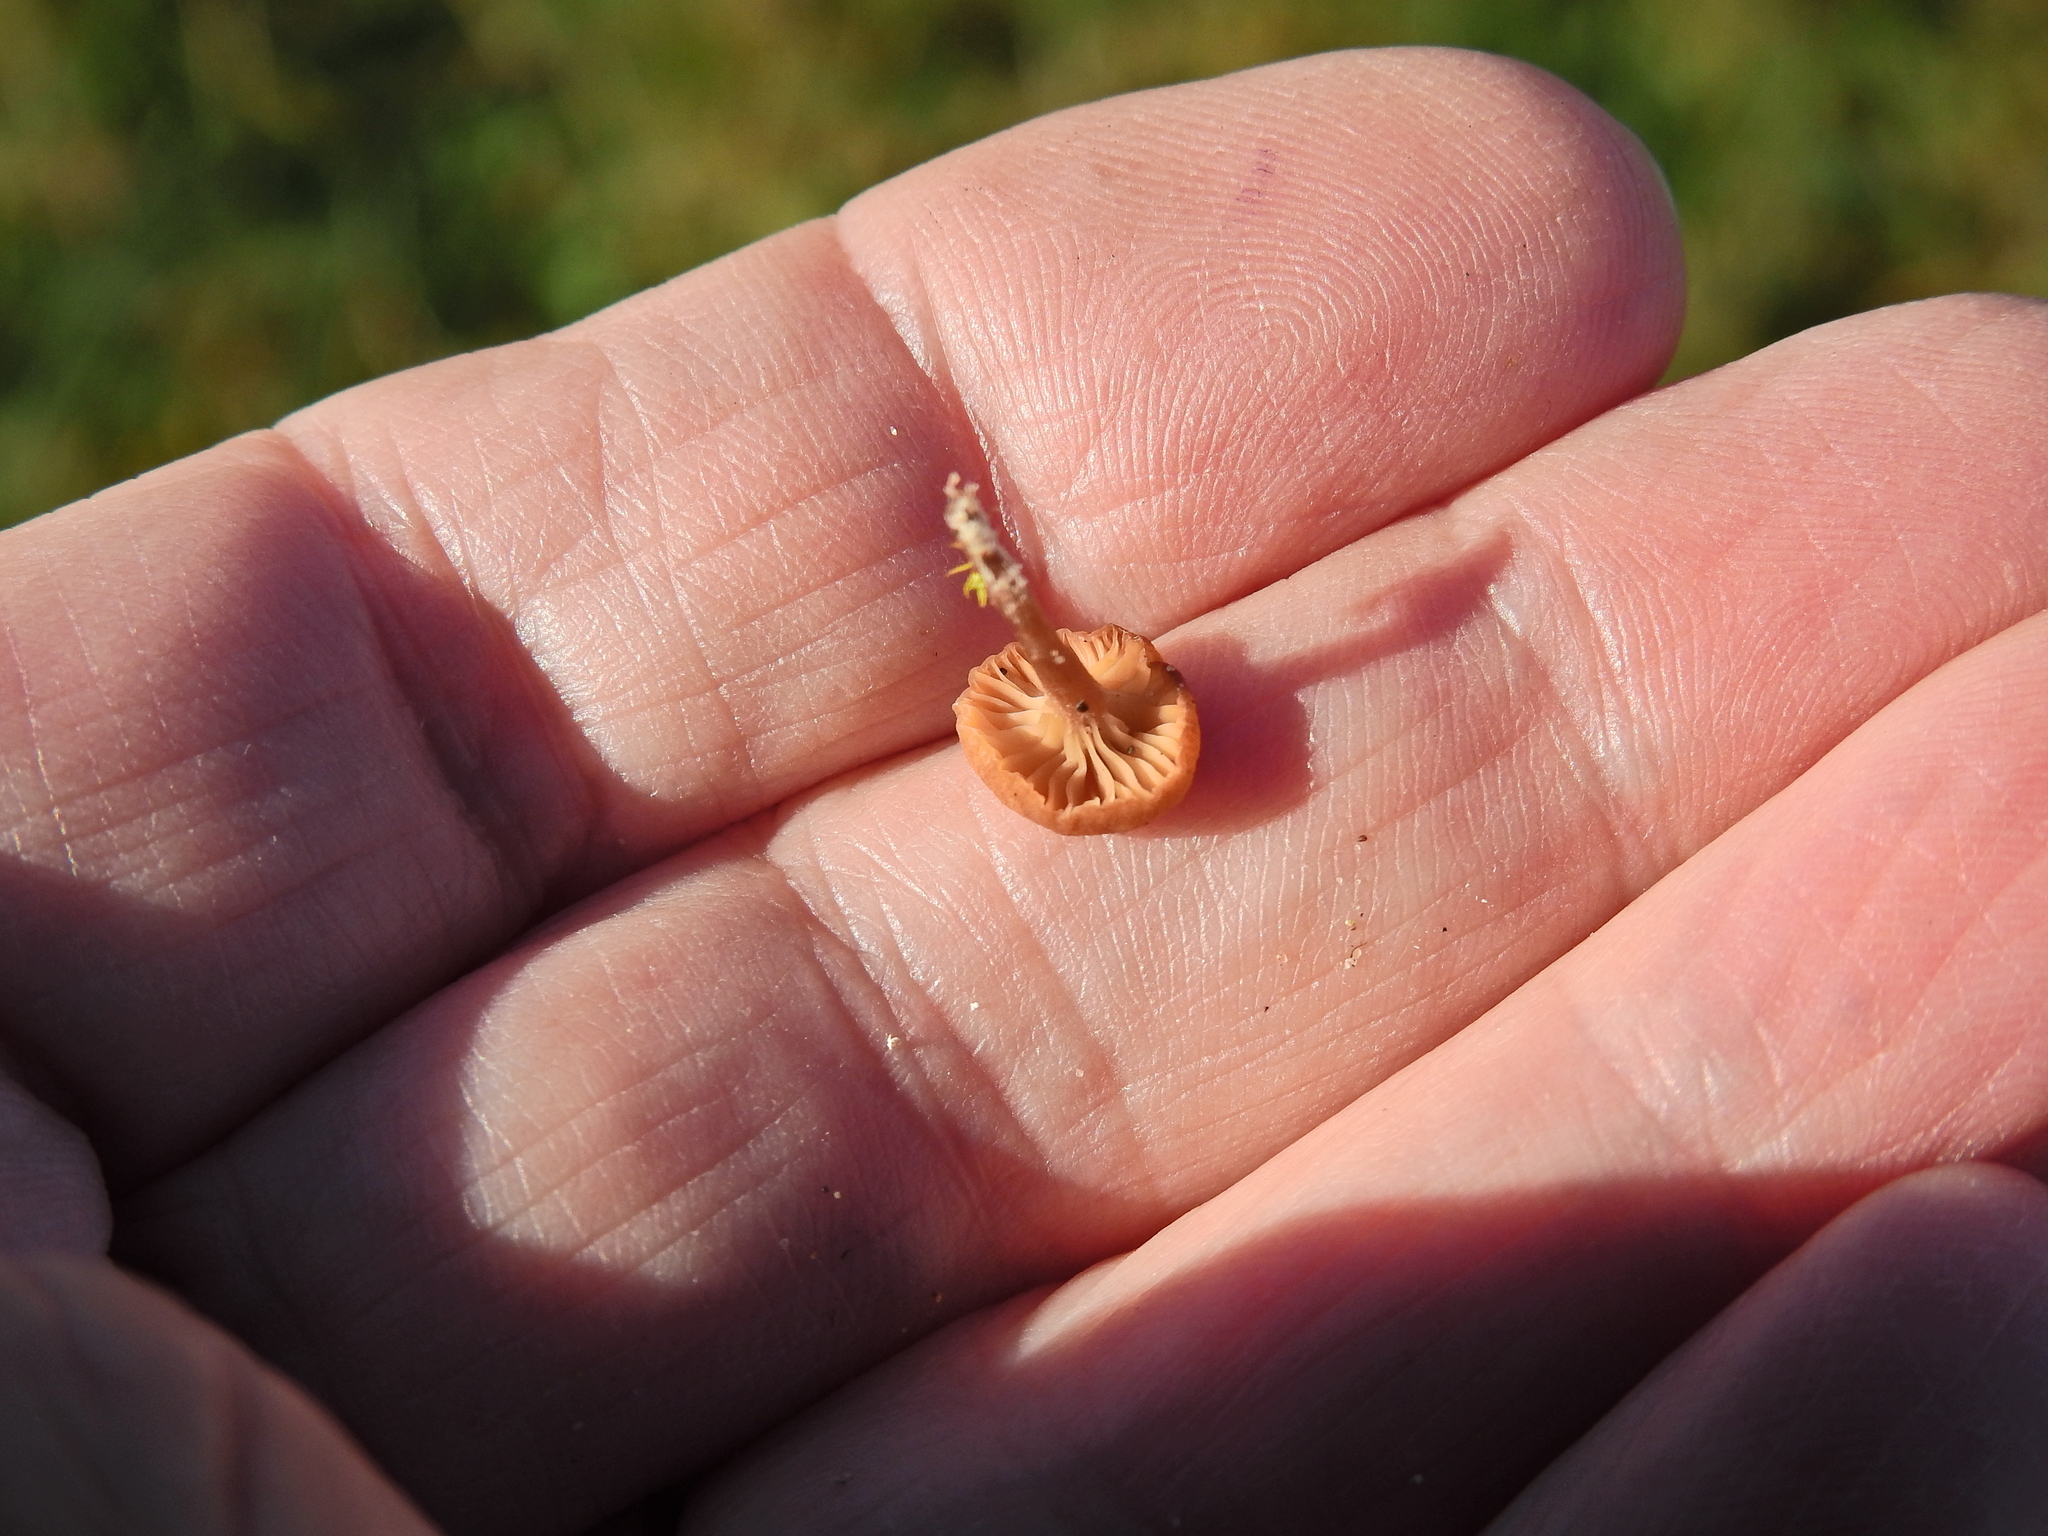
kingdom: Fungi
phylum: Basidiomycota
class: Agaricomycetes
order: Agaricales
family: Tricholomataceae
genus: Omphalina
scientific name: Omphalina pyxidata
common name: Cinnamon navel
